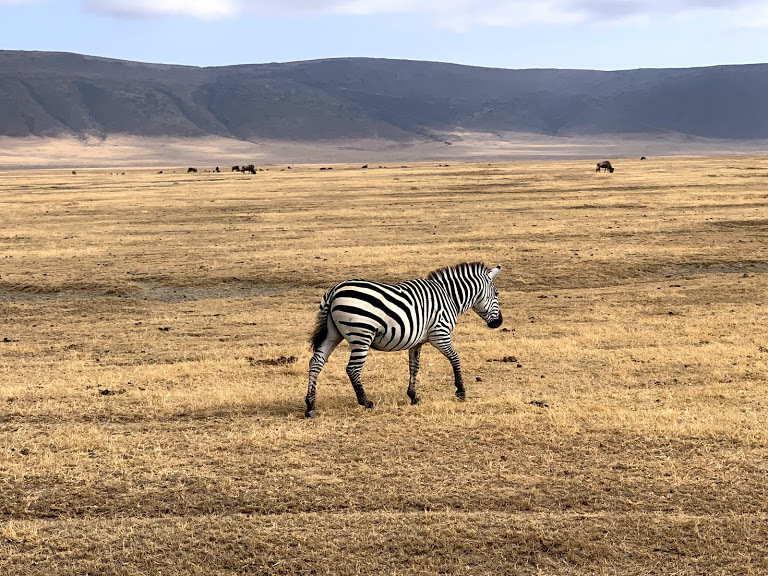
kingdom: Animalia
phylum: Chordata
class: Mammalia
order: Perissodactyla
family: Equidae
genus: Equus
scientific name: Equus quagga
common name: Plains zebra
